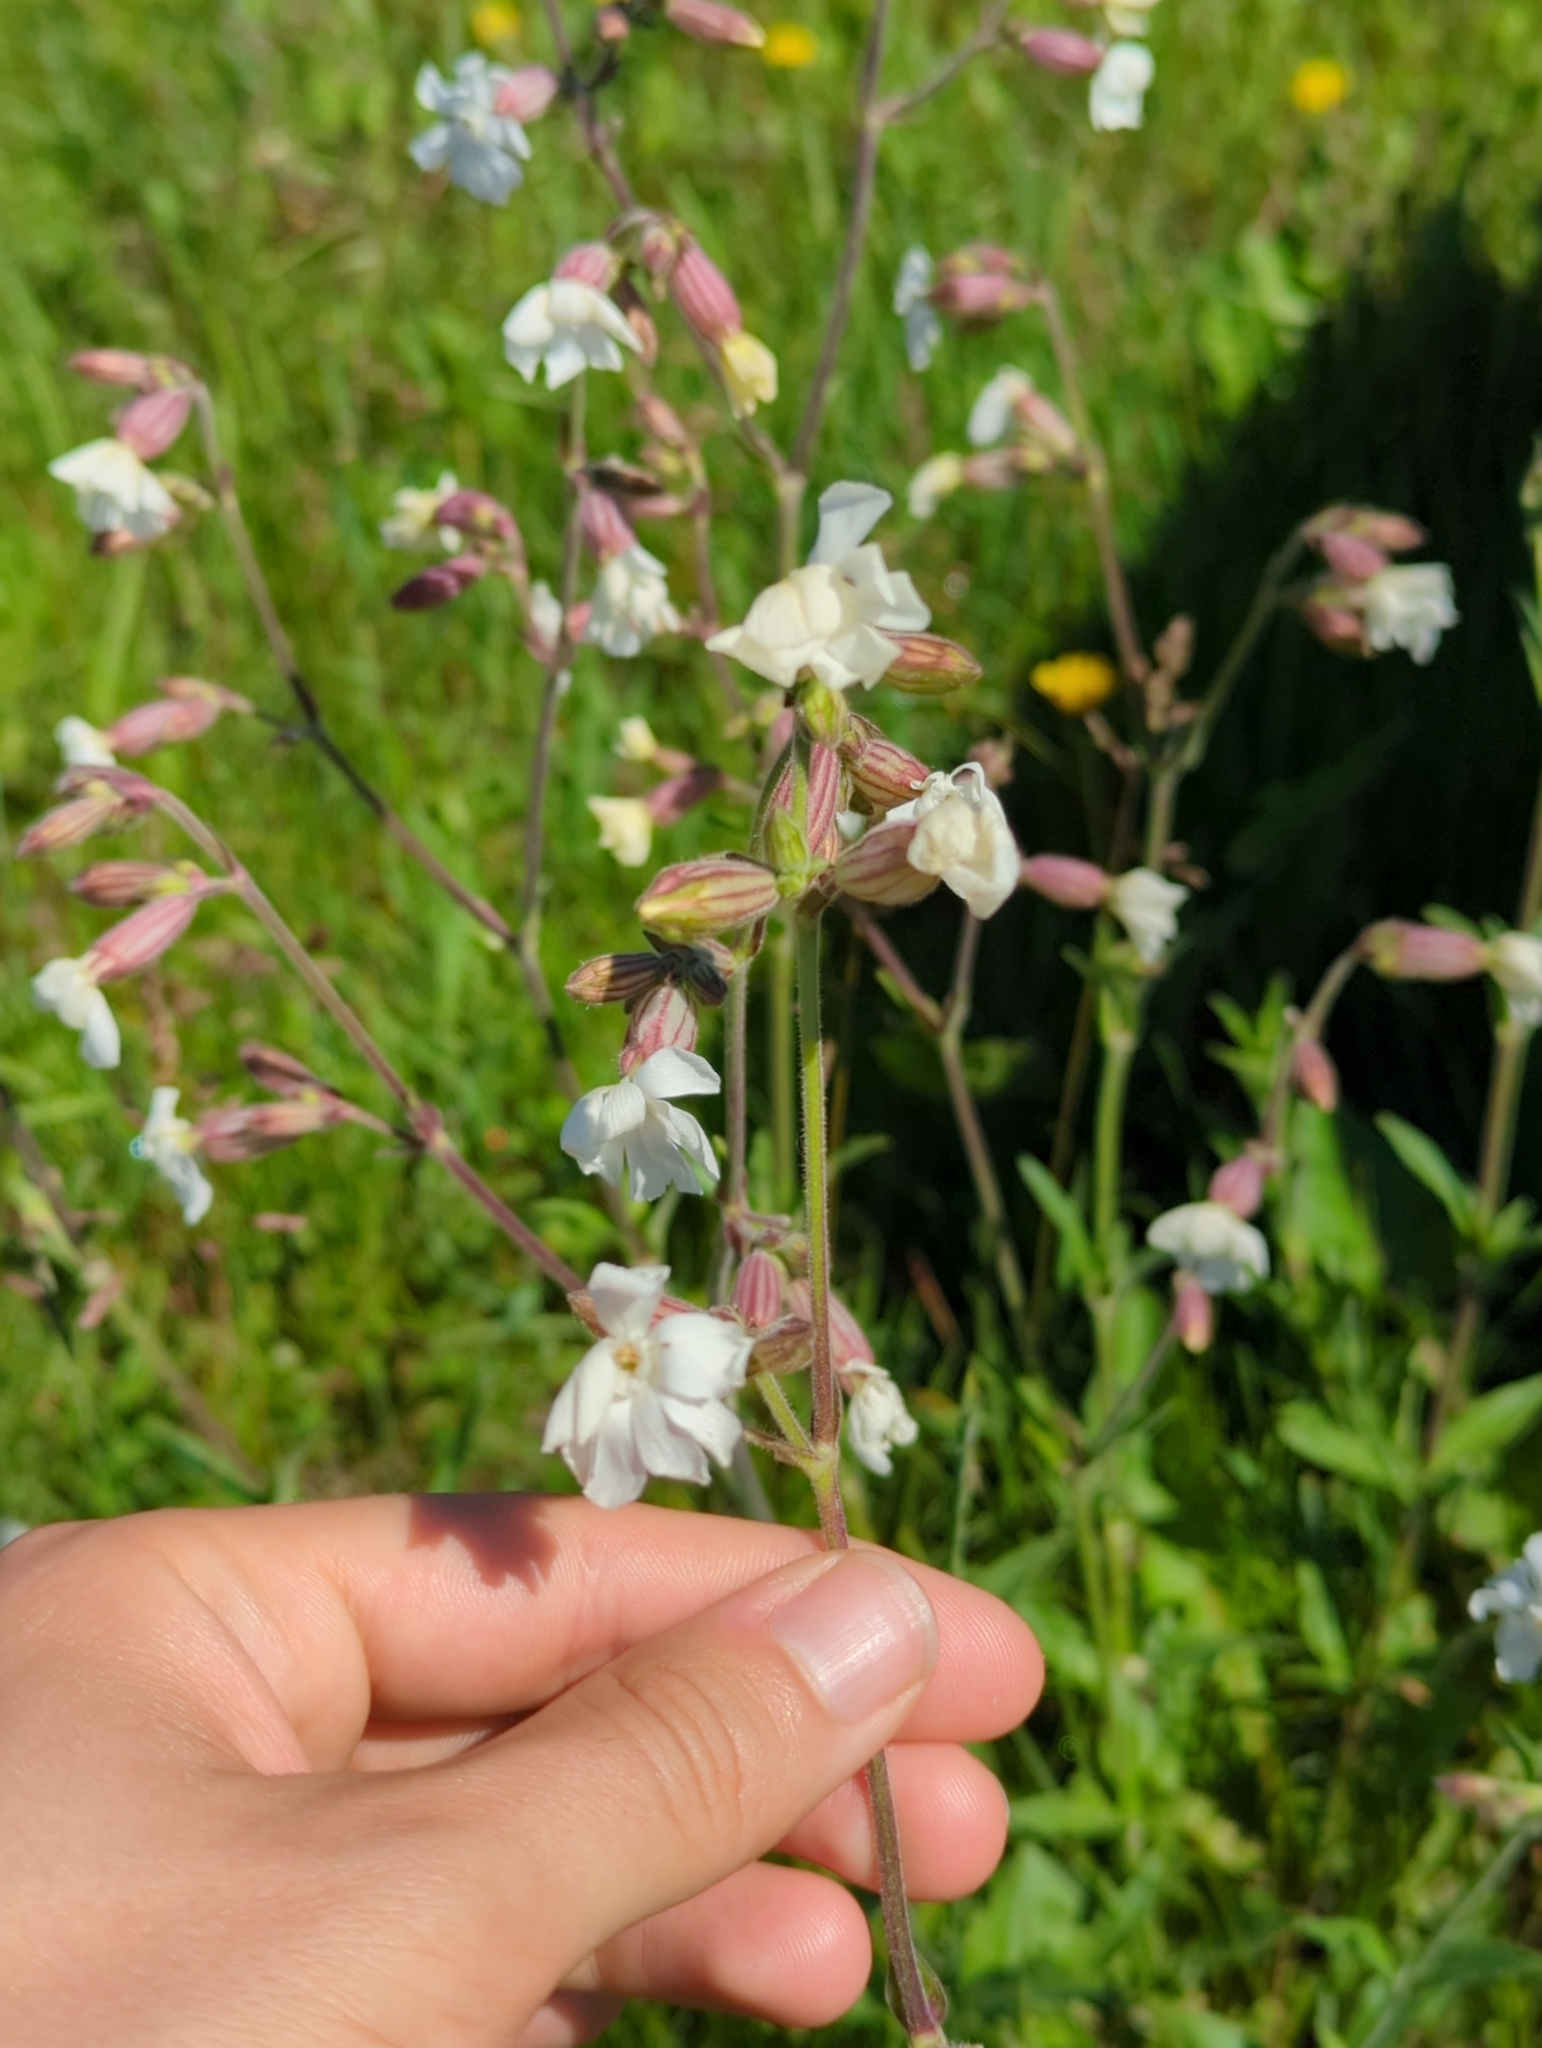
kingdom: Plantae
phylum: Tracheophyta
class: Magnoliopsida
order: Caryophyllales
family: Caryophyllaceae
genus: Silene
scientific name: Silene latifolia
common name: White campion
